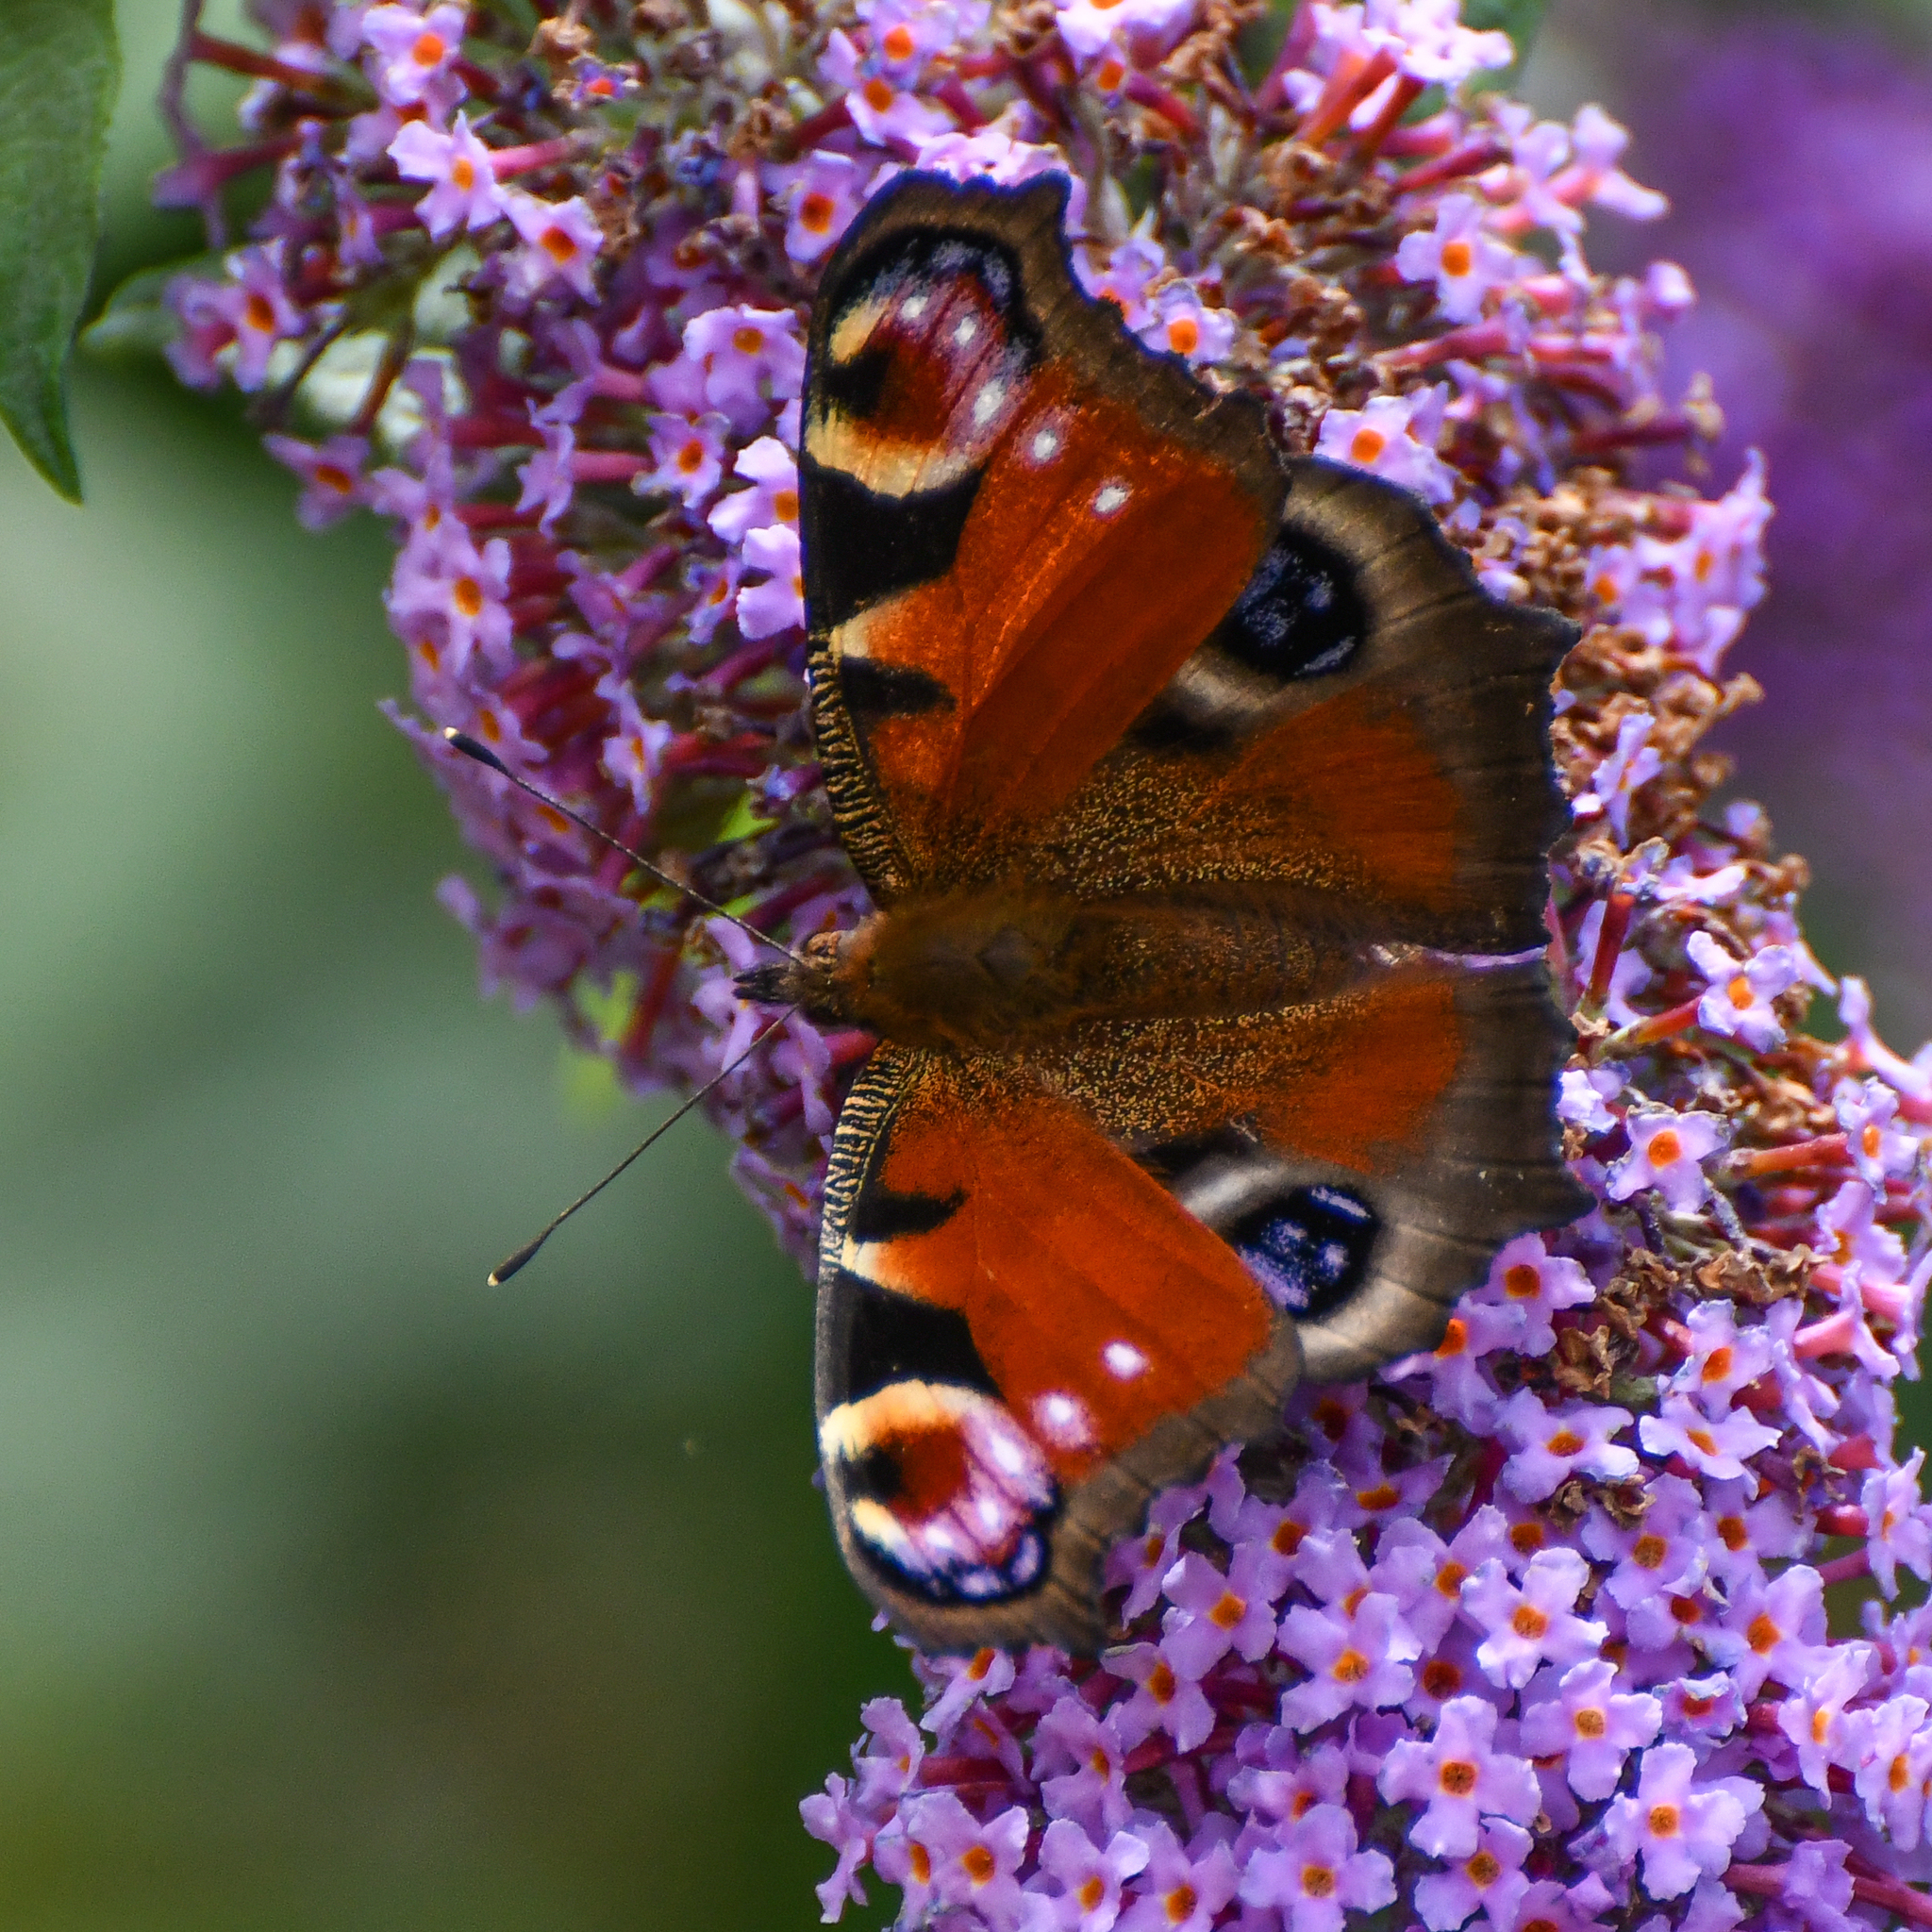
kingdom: Animalia
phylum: Arthropoda
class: Insecta
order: Lepidoptera
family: Nymphalidae
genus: Aglais
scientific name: Aglais io
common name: Peacock
